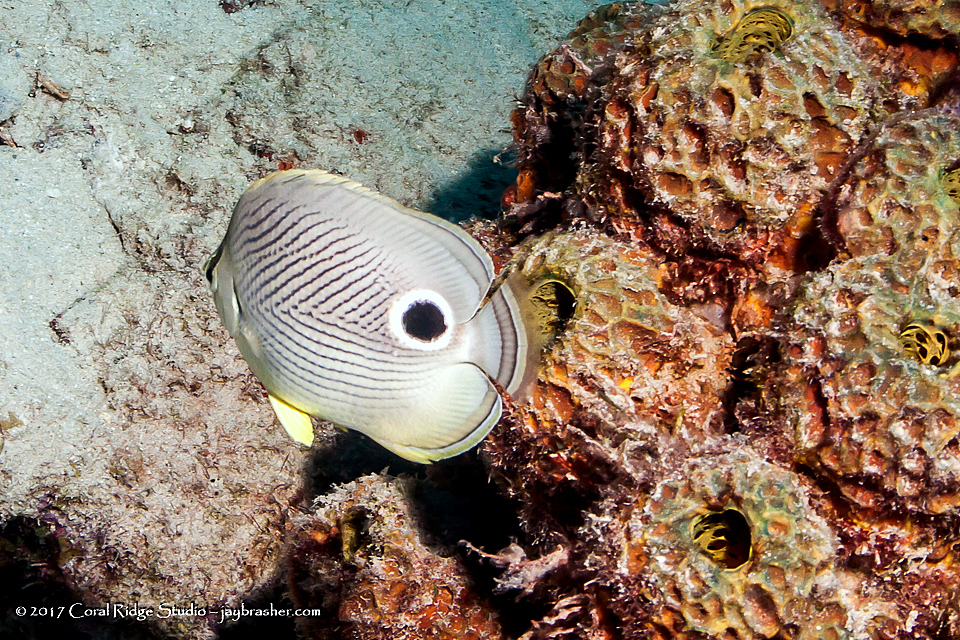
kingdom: Animalia
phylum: Porifera
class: Demospongiae
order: Verongiida
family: Aplysinidae
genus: Verongula
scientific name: Verongula rigida
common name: Pitted sponge
